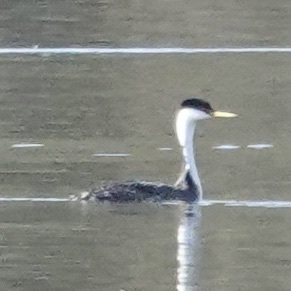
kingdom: Animalia
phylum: Chordata
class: Aves
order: Podicipediformes
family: Podicipedidae
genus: Aechmophorus
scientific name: Aechmophorus occidentalis
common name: Western grebe
